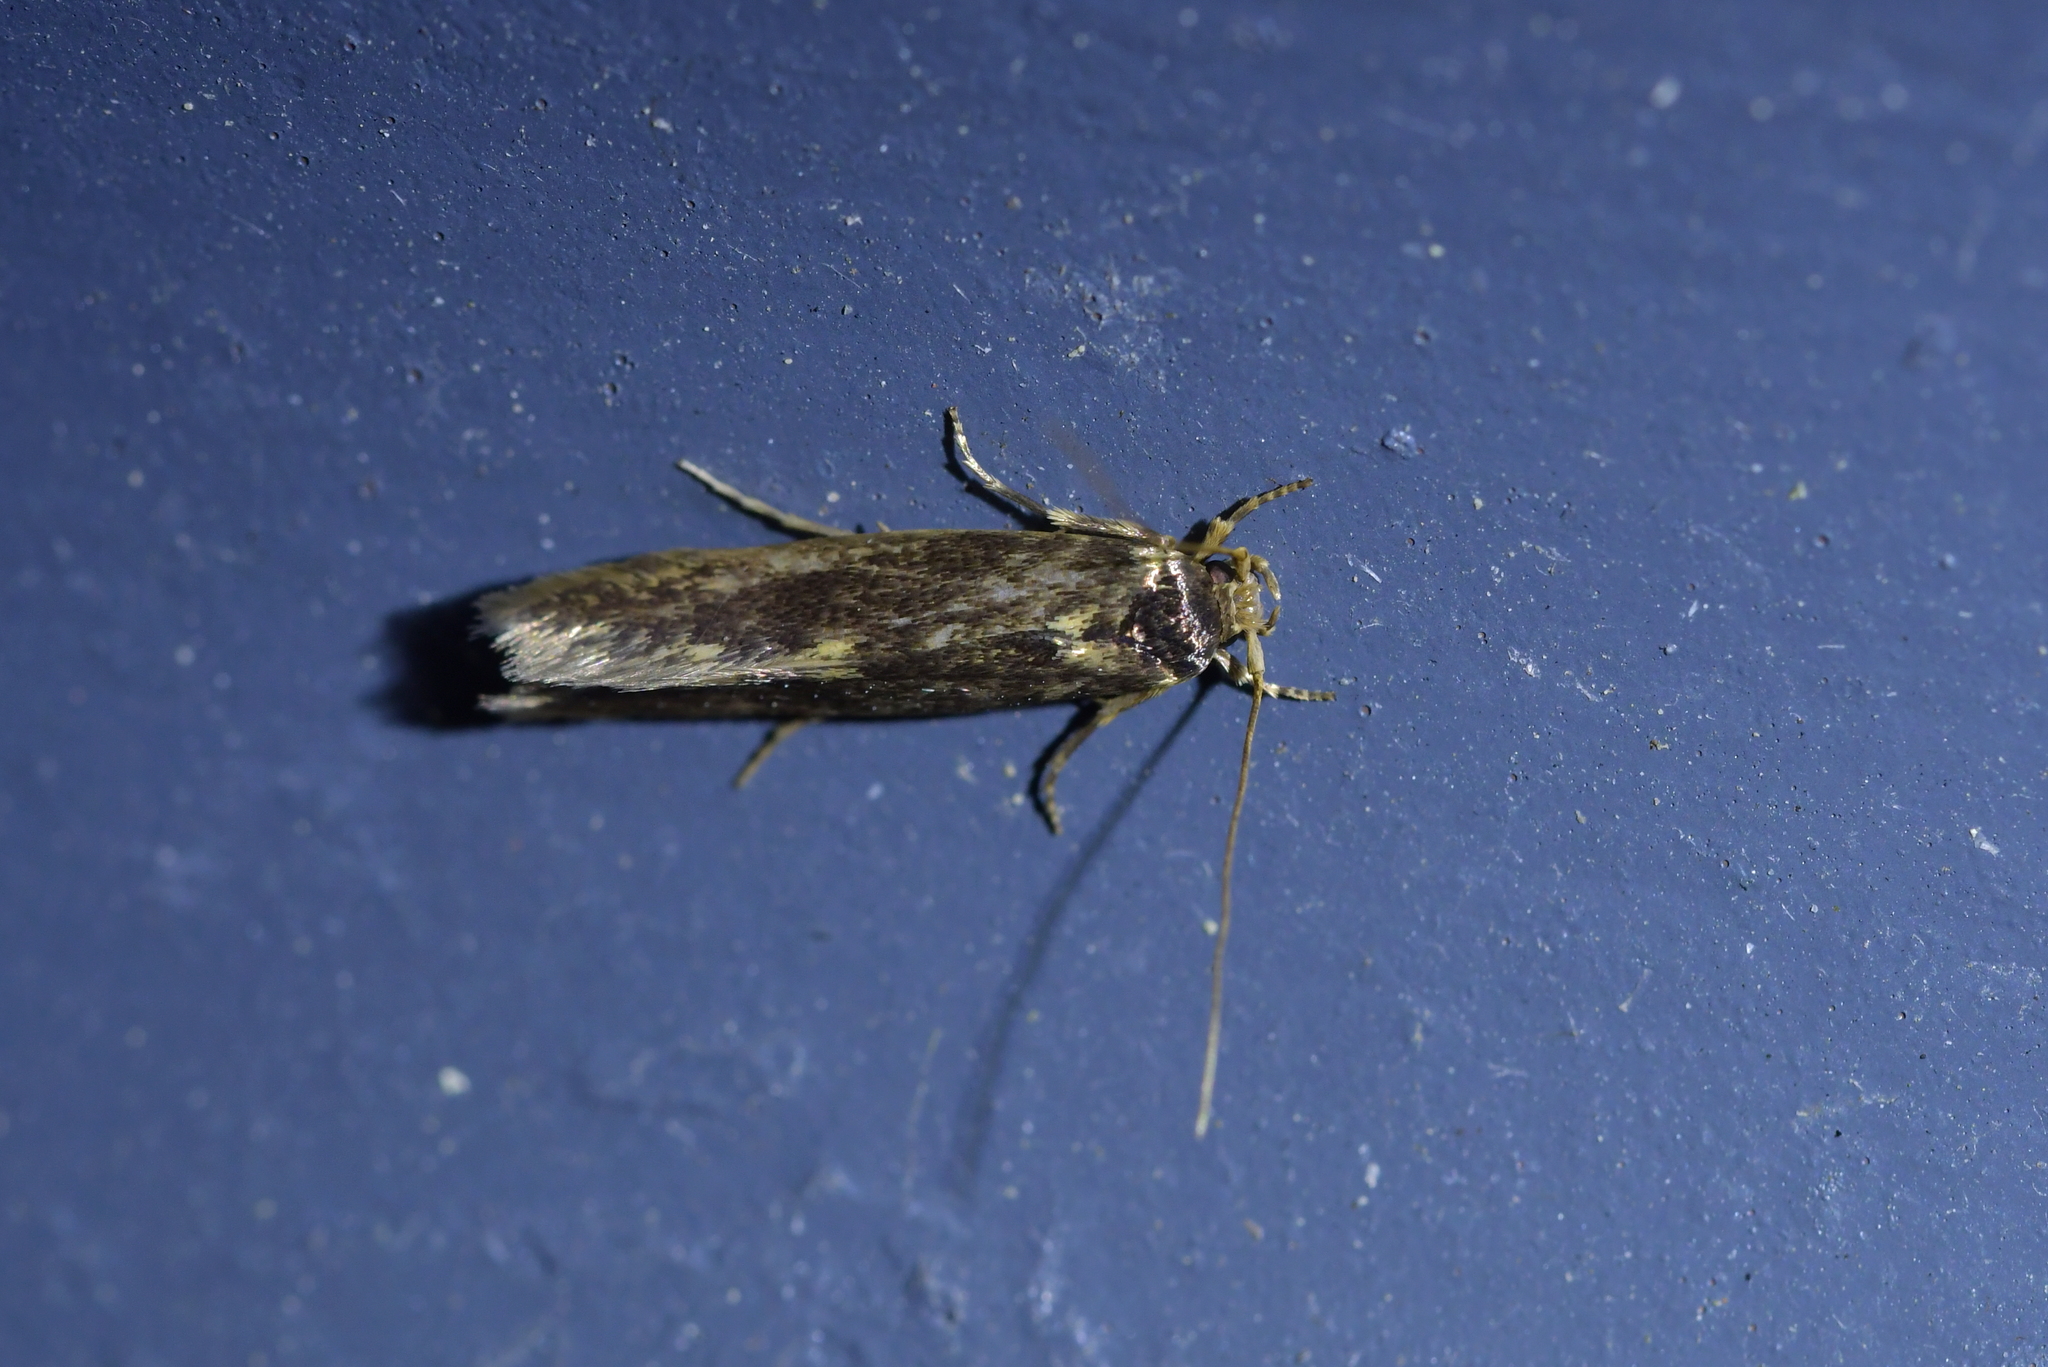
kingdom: Animalia
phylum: Arthropoda
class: Insecta
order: Lepidoptera
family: Tineidae
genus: Opogona
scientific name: Opogona omoscopa
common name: Moth
